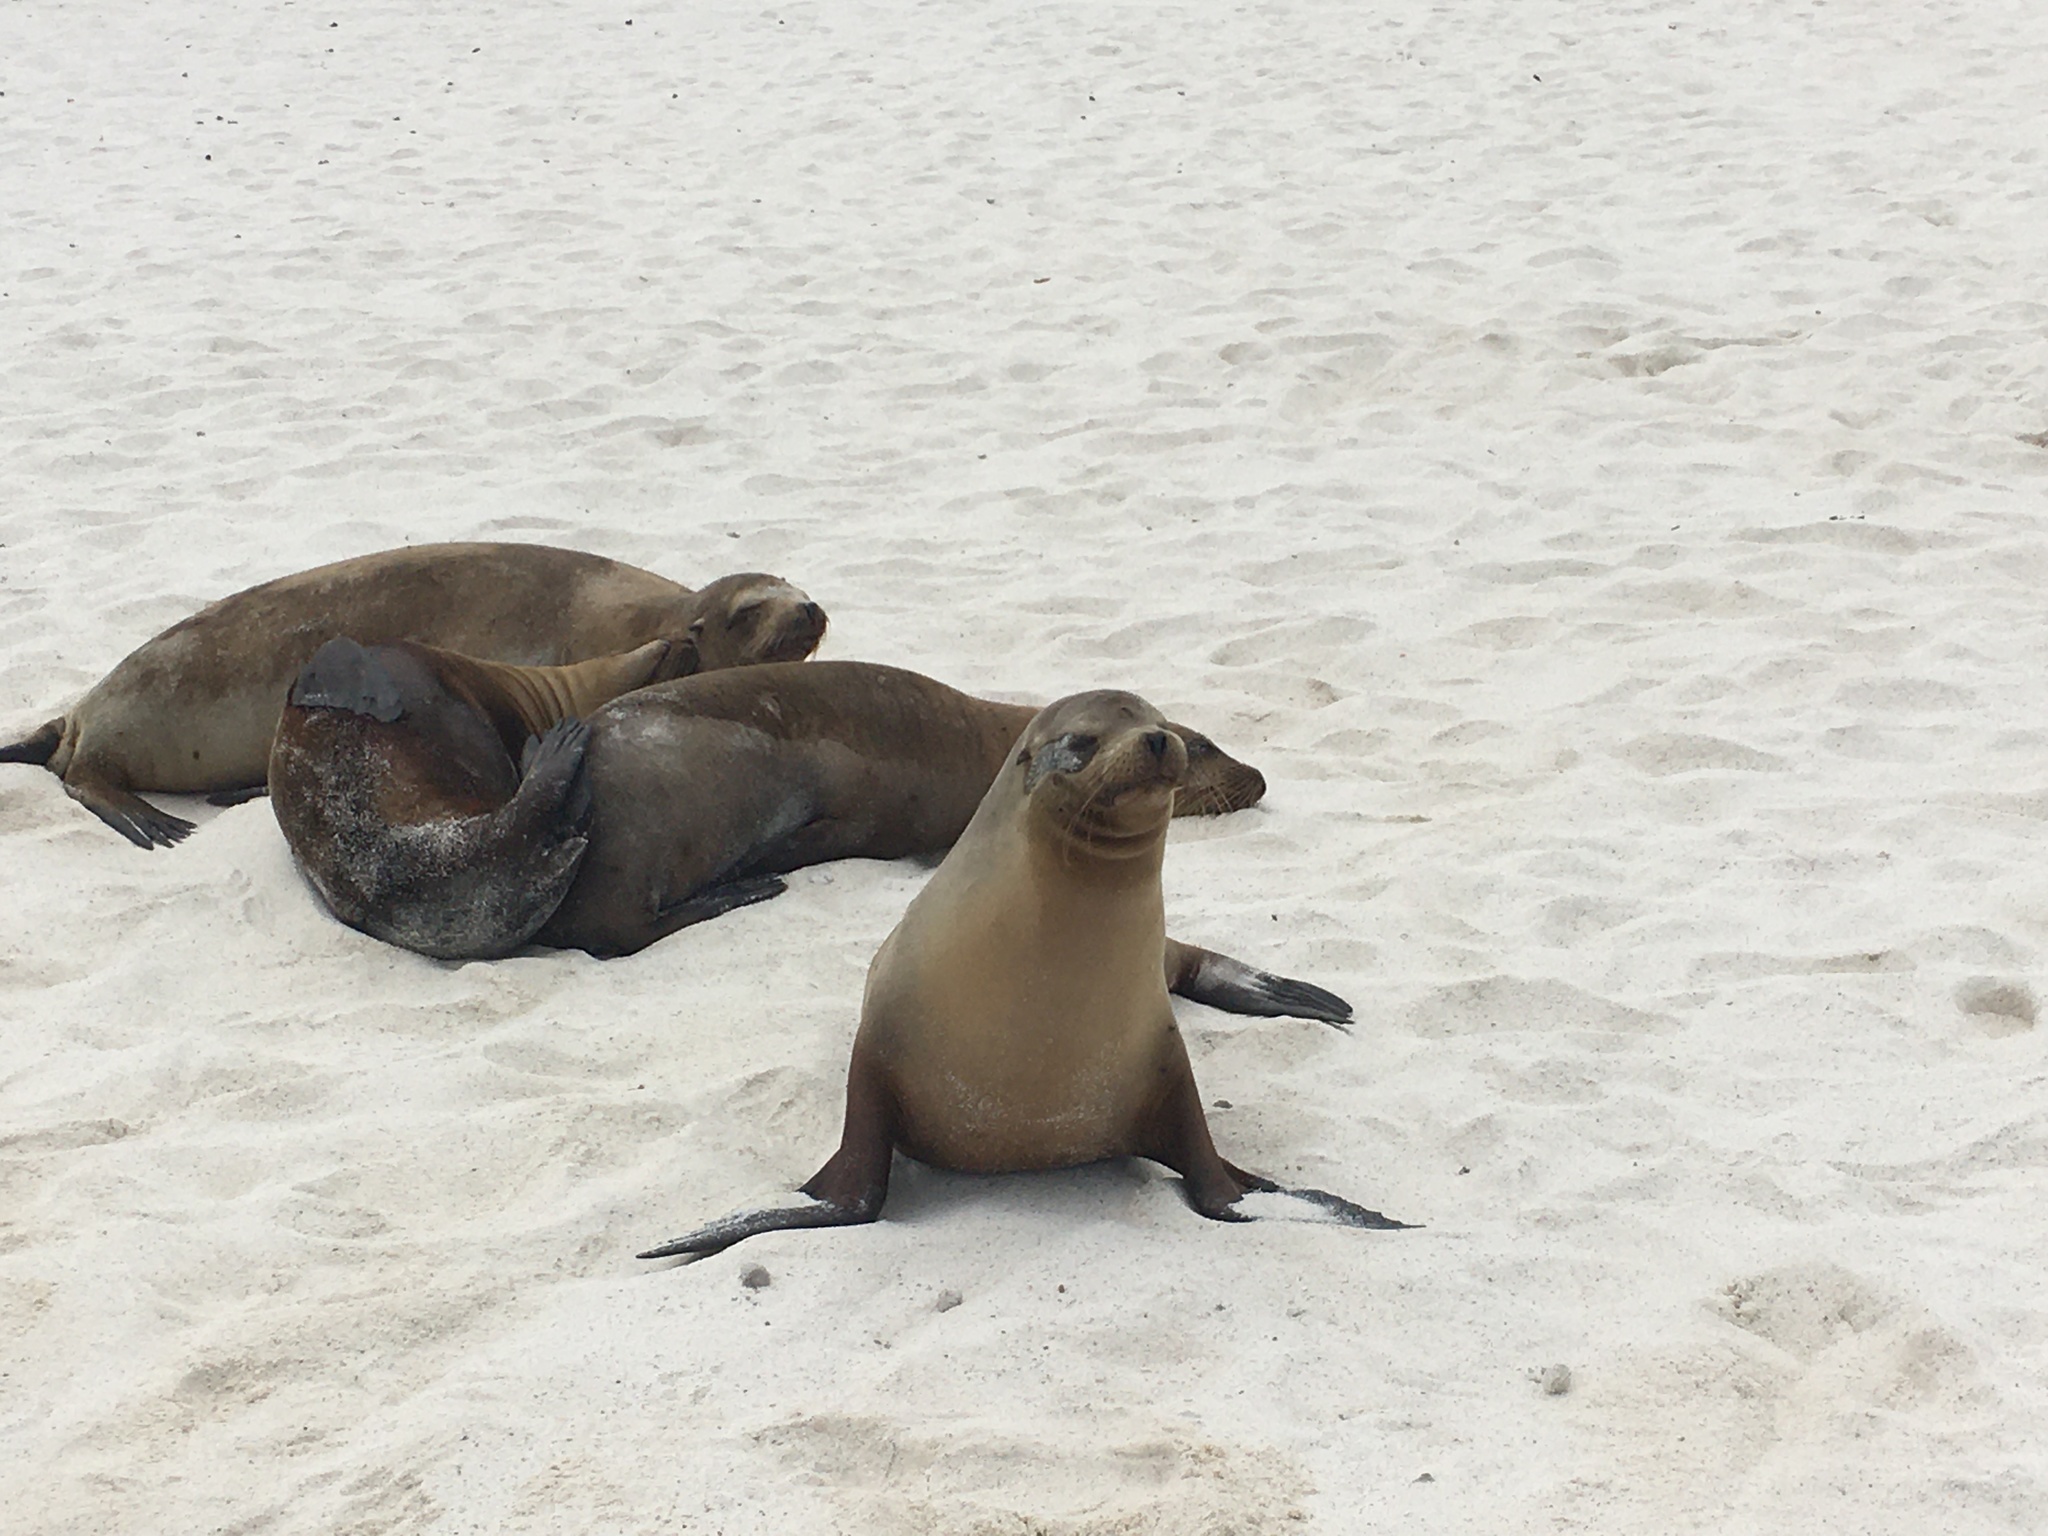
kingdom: Animalia
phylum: Chordata
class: Mammalia
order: Carnivora
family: Otariidae
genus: Zalophus
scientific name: Zalophus wollebaeki
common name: Galapagos sea lion
